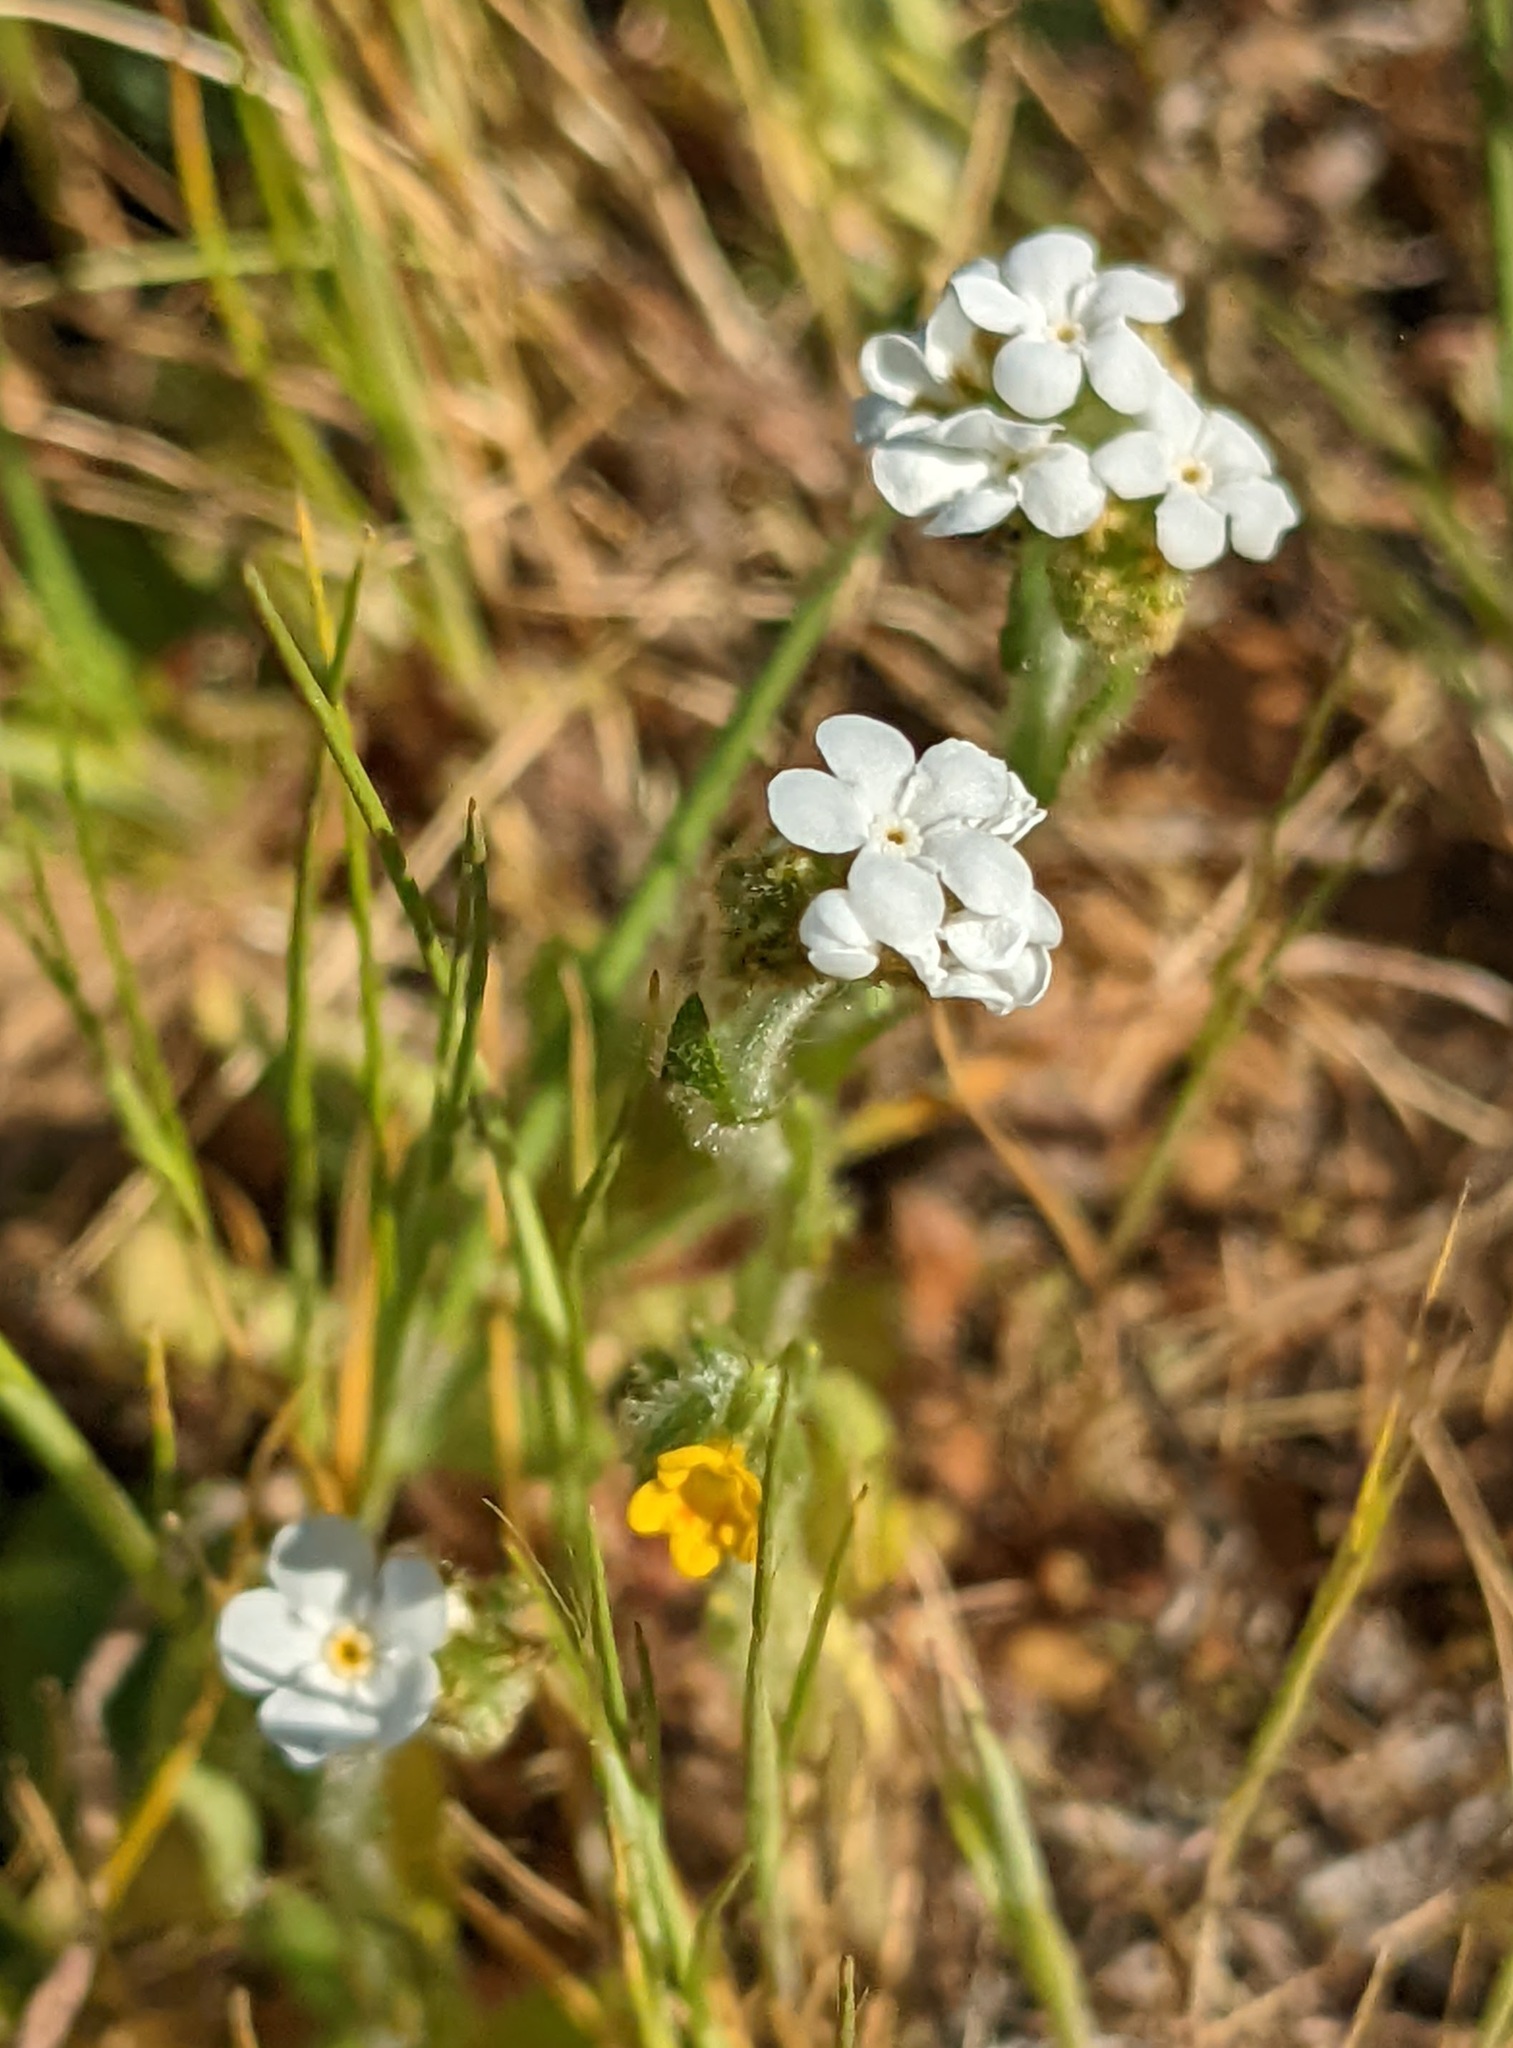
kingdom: Plantae
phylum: Tracheophyta
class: Magnoliopsida
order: Boraginales
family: Boraginaceae
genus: Plagiobothrys
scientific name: Plagiobothrys nothofulvus
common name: Popcorn-flower
